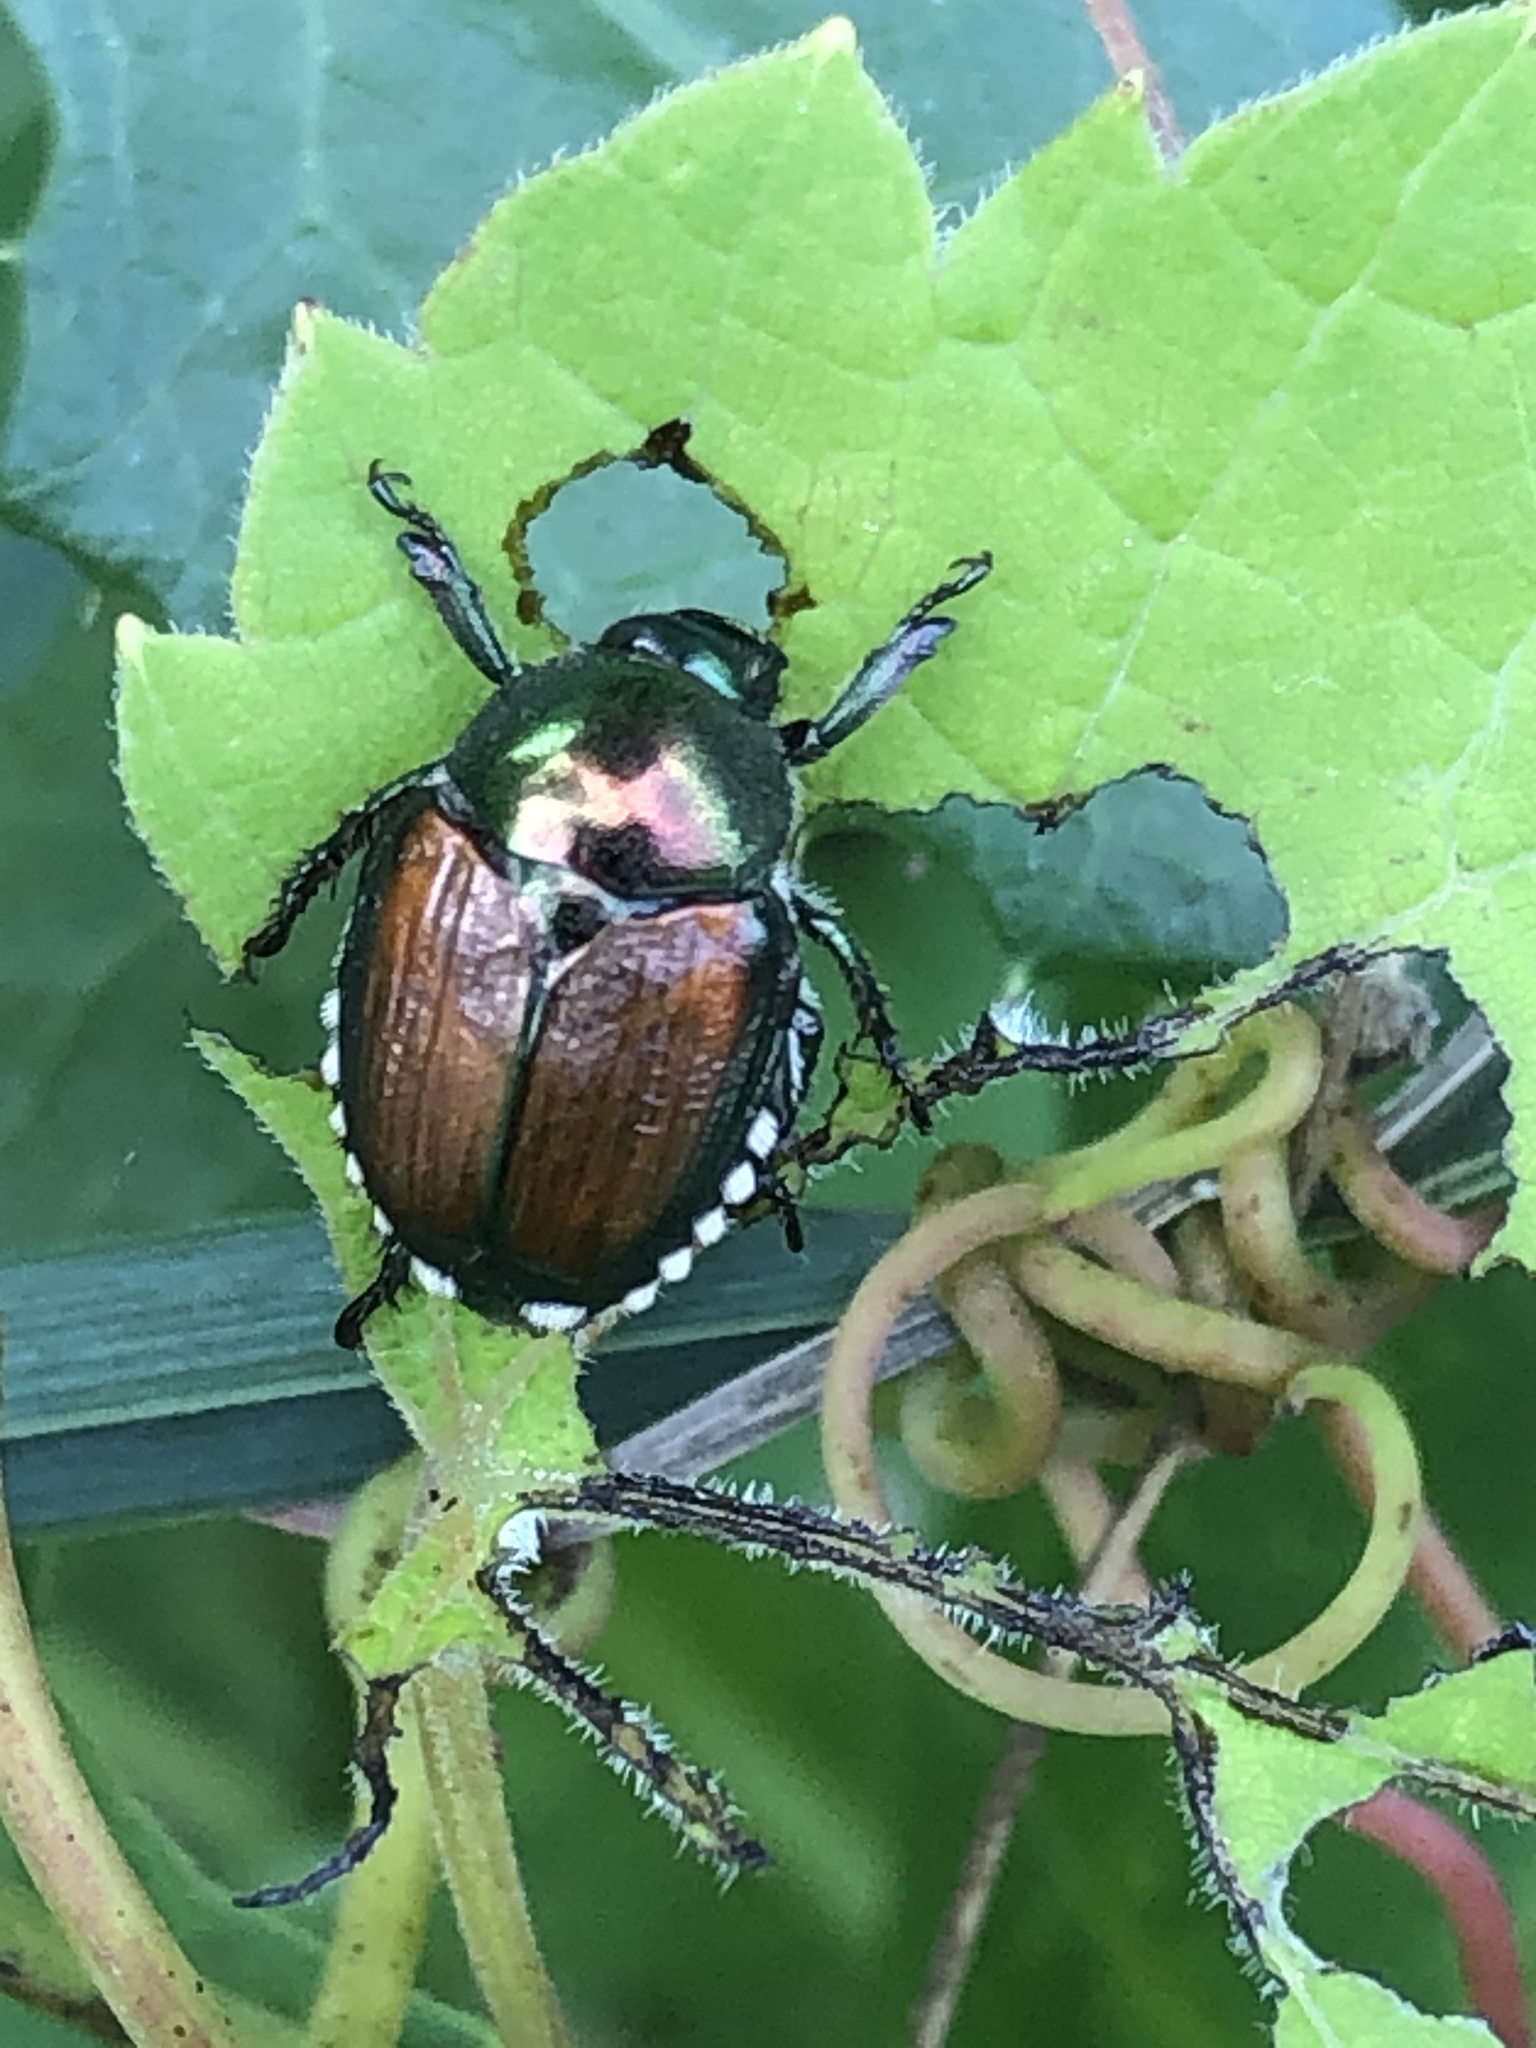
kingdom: Animalia
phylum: Arthropoda
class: Insecta
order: Coleoptera
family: Scarabaeidae
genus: Popillia
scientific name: Popillia japonica
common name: Japanese beetle
